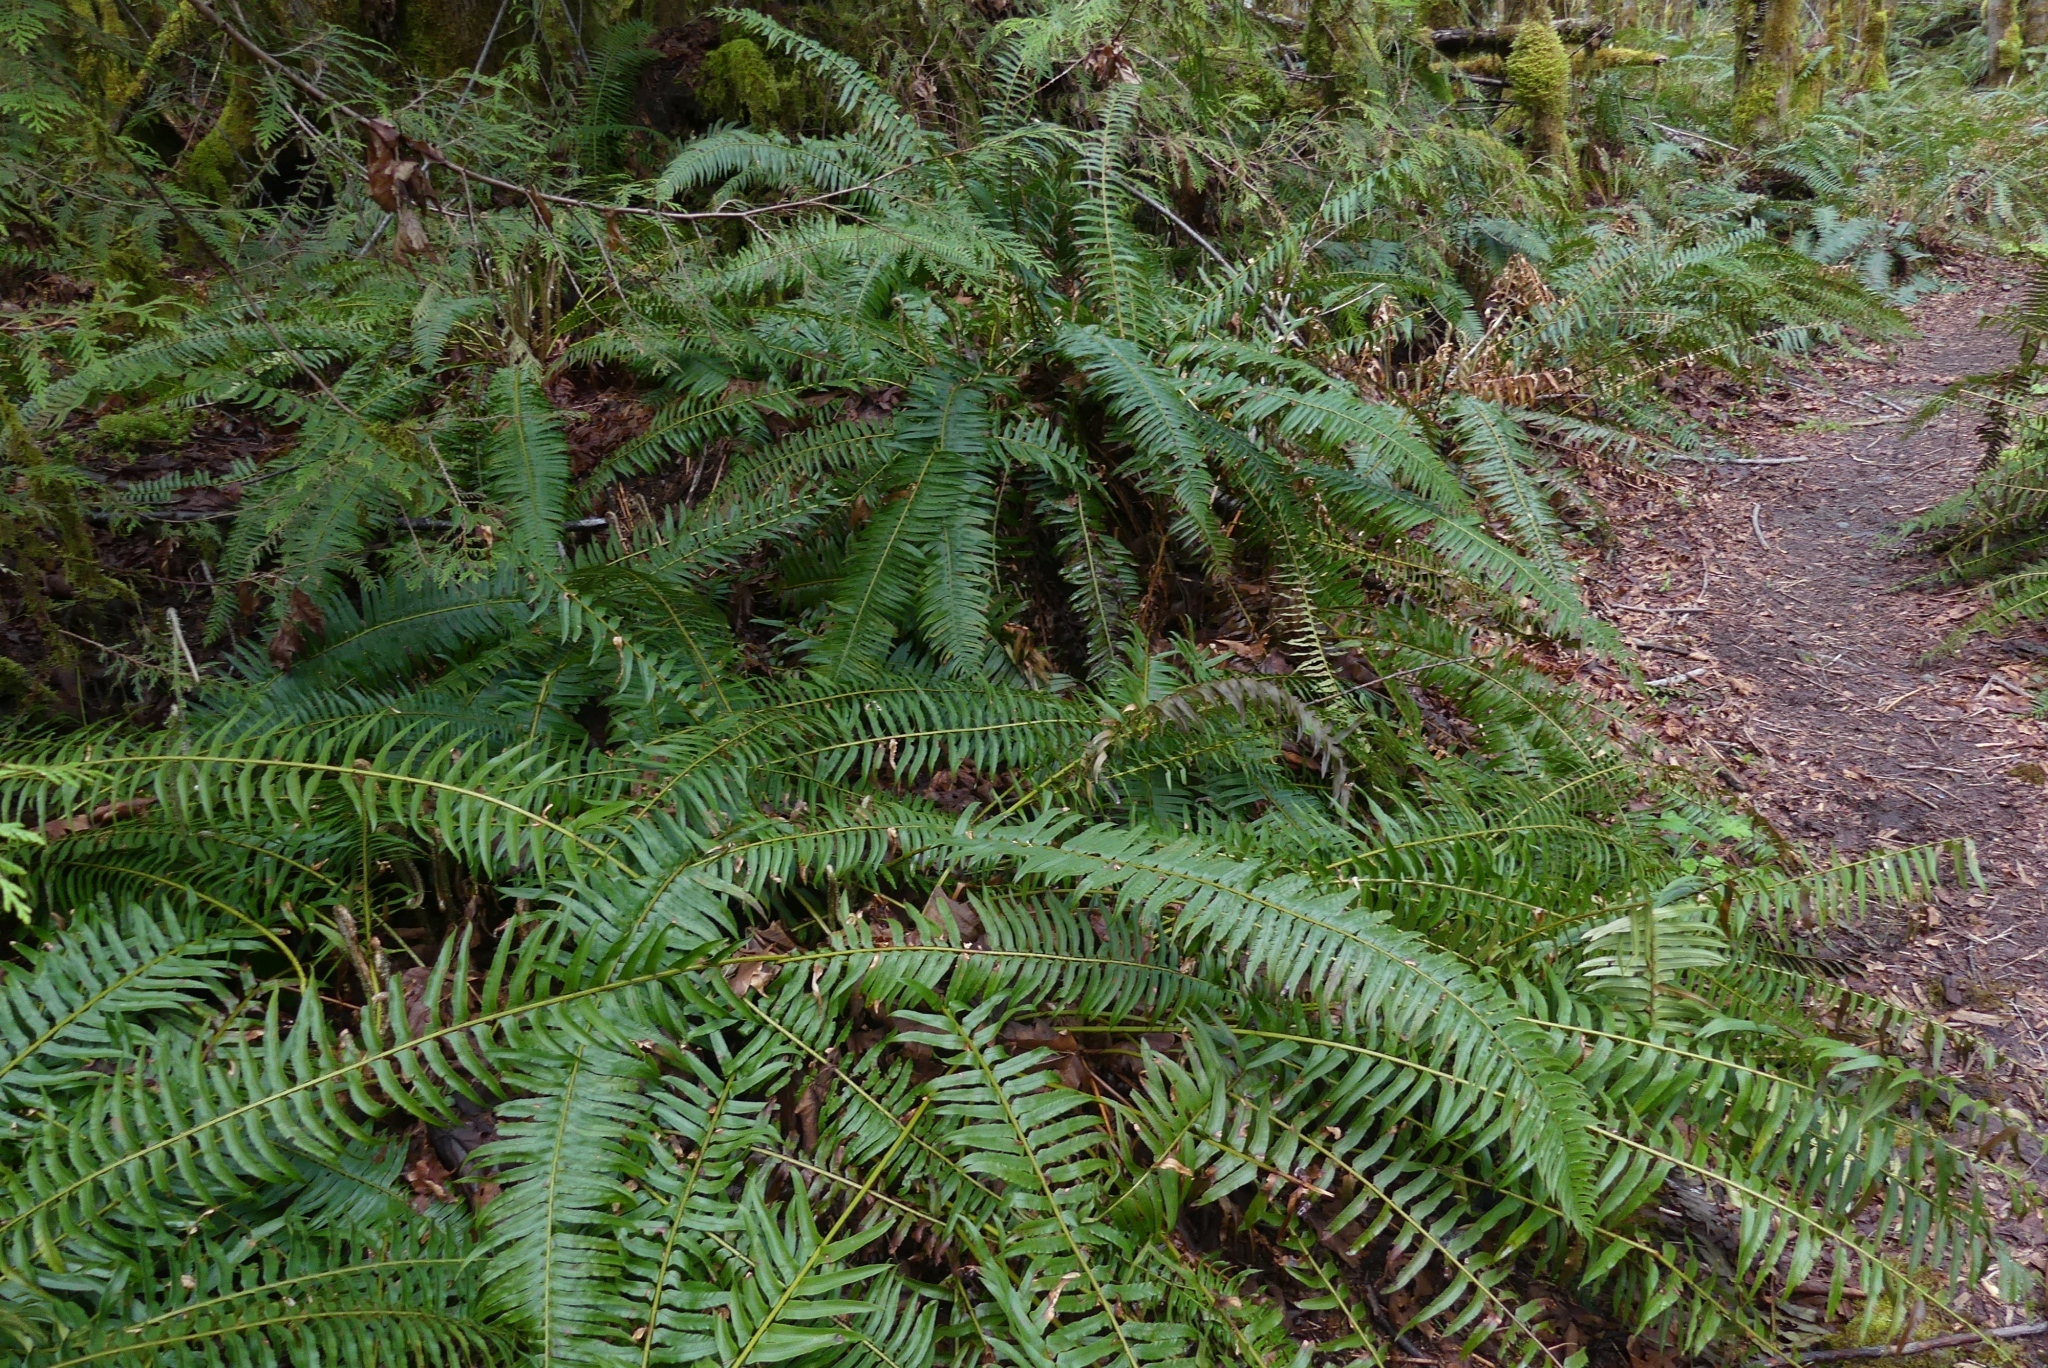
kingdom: Plantae
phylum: Tracheophyta
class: Polypodiopsida
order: Polypodiales
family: Dryopteridaceae
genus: Polystichum
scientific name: Polystichum munitum
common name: Western sword-fern
